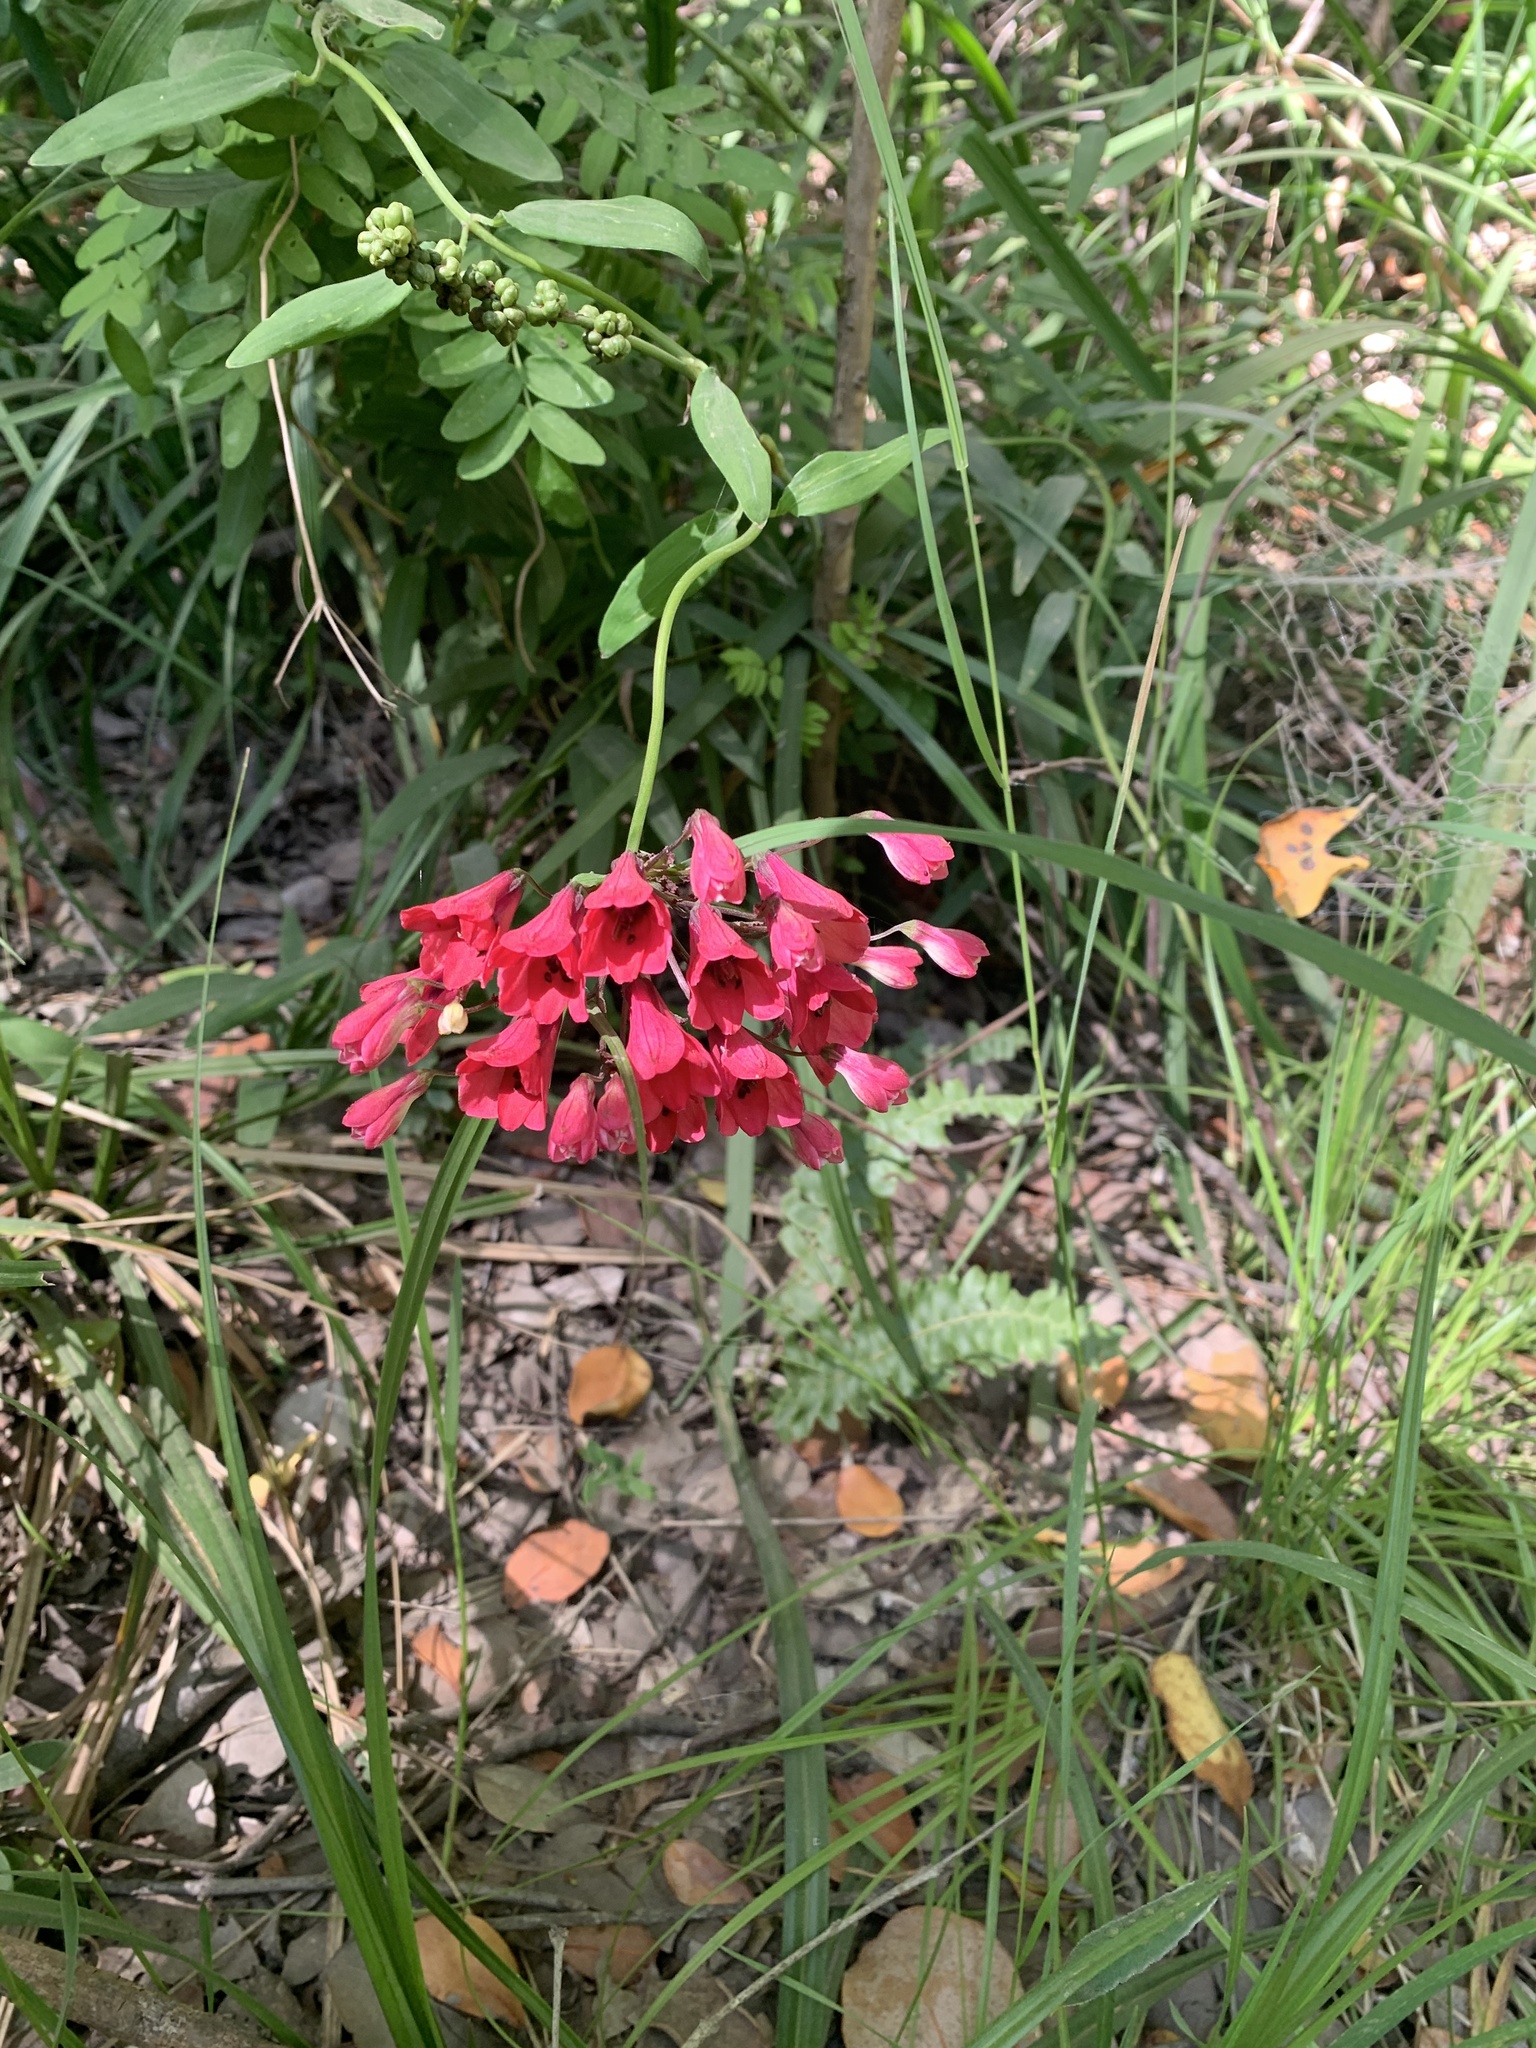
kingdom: Plantae
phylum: Tracheophyta
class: Liliopsida
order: Liliales
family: Alstroemeriaceae
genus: Bomarea
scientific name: Bomarea salsilla
